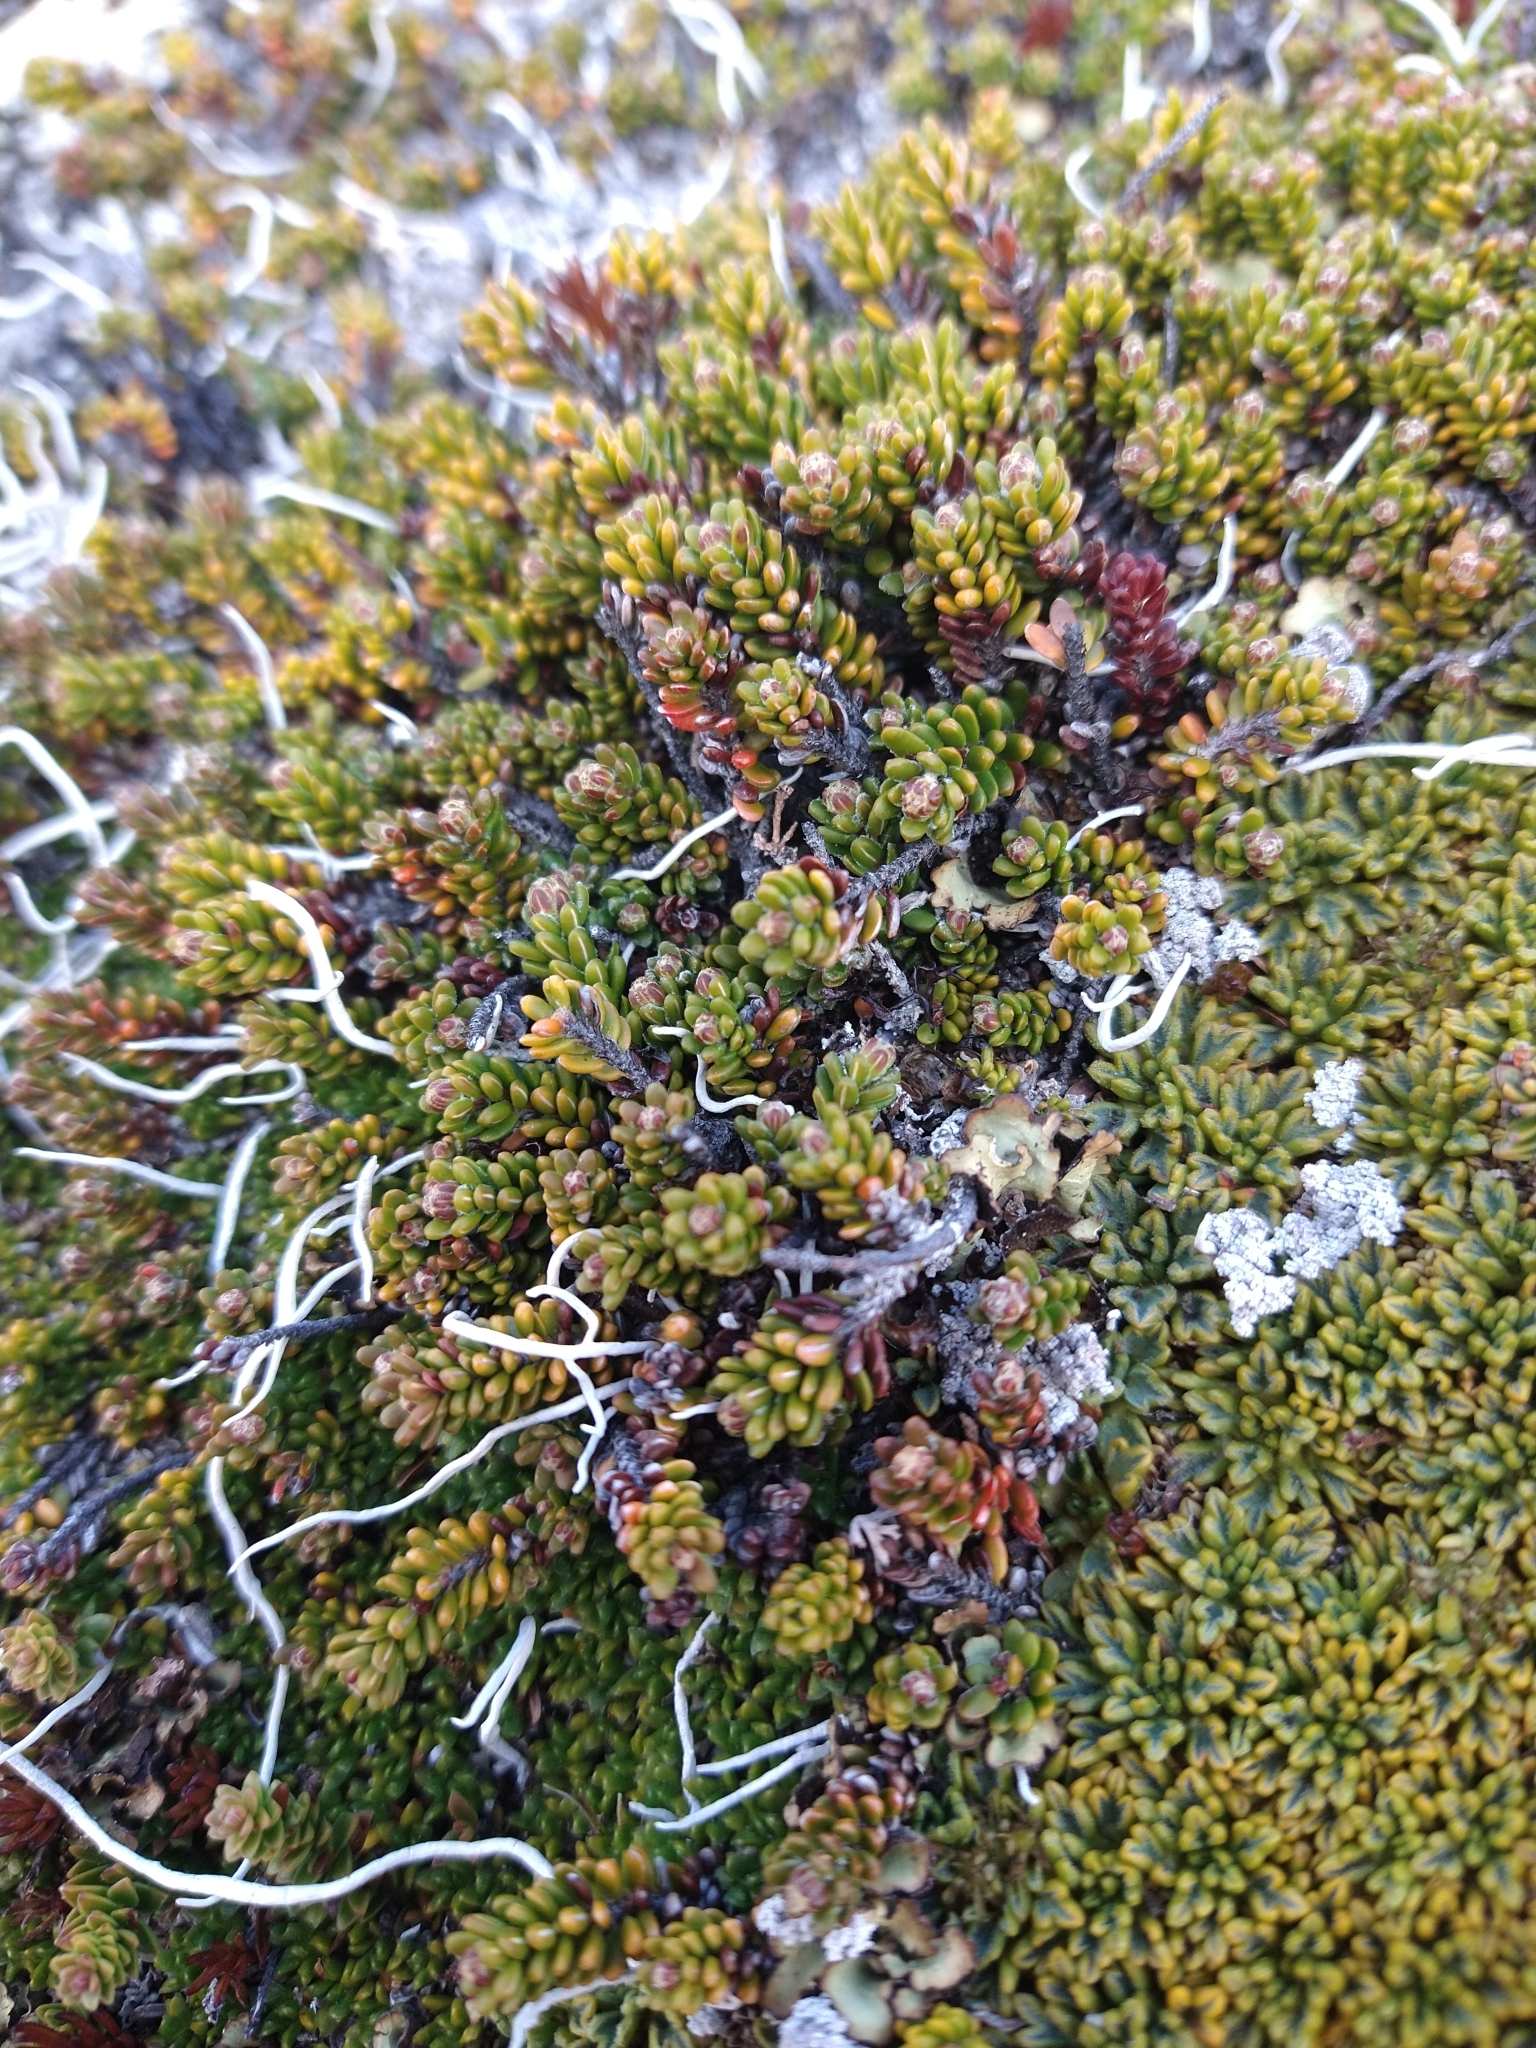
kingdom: Plantae
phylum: Tracheophyta
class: Magnoliopsida
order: Ericales
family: Ericaceae
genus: Empetrum
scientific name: Empetrum rubrum
